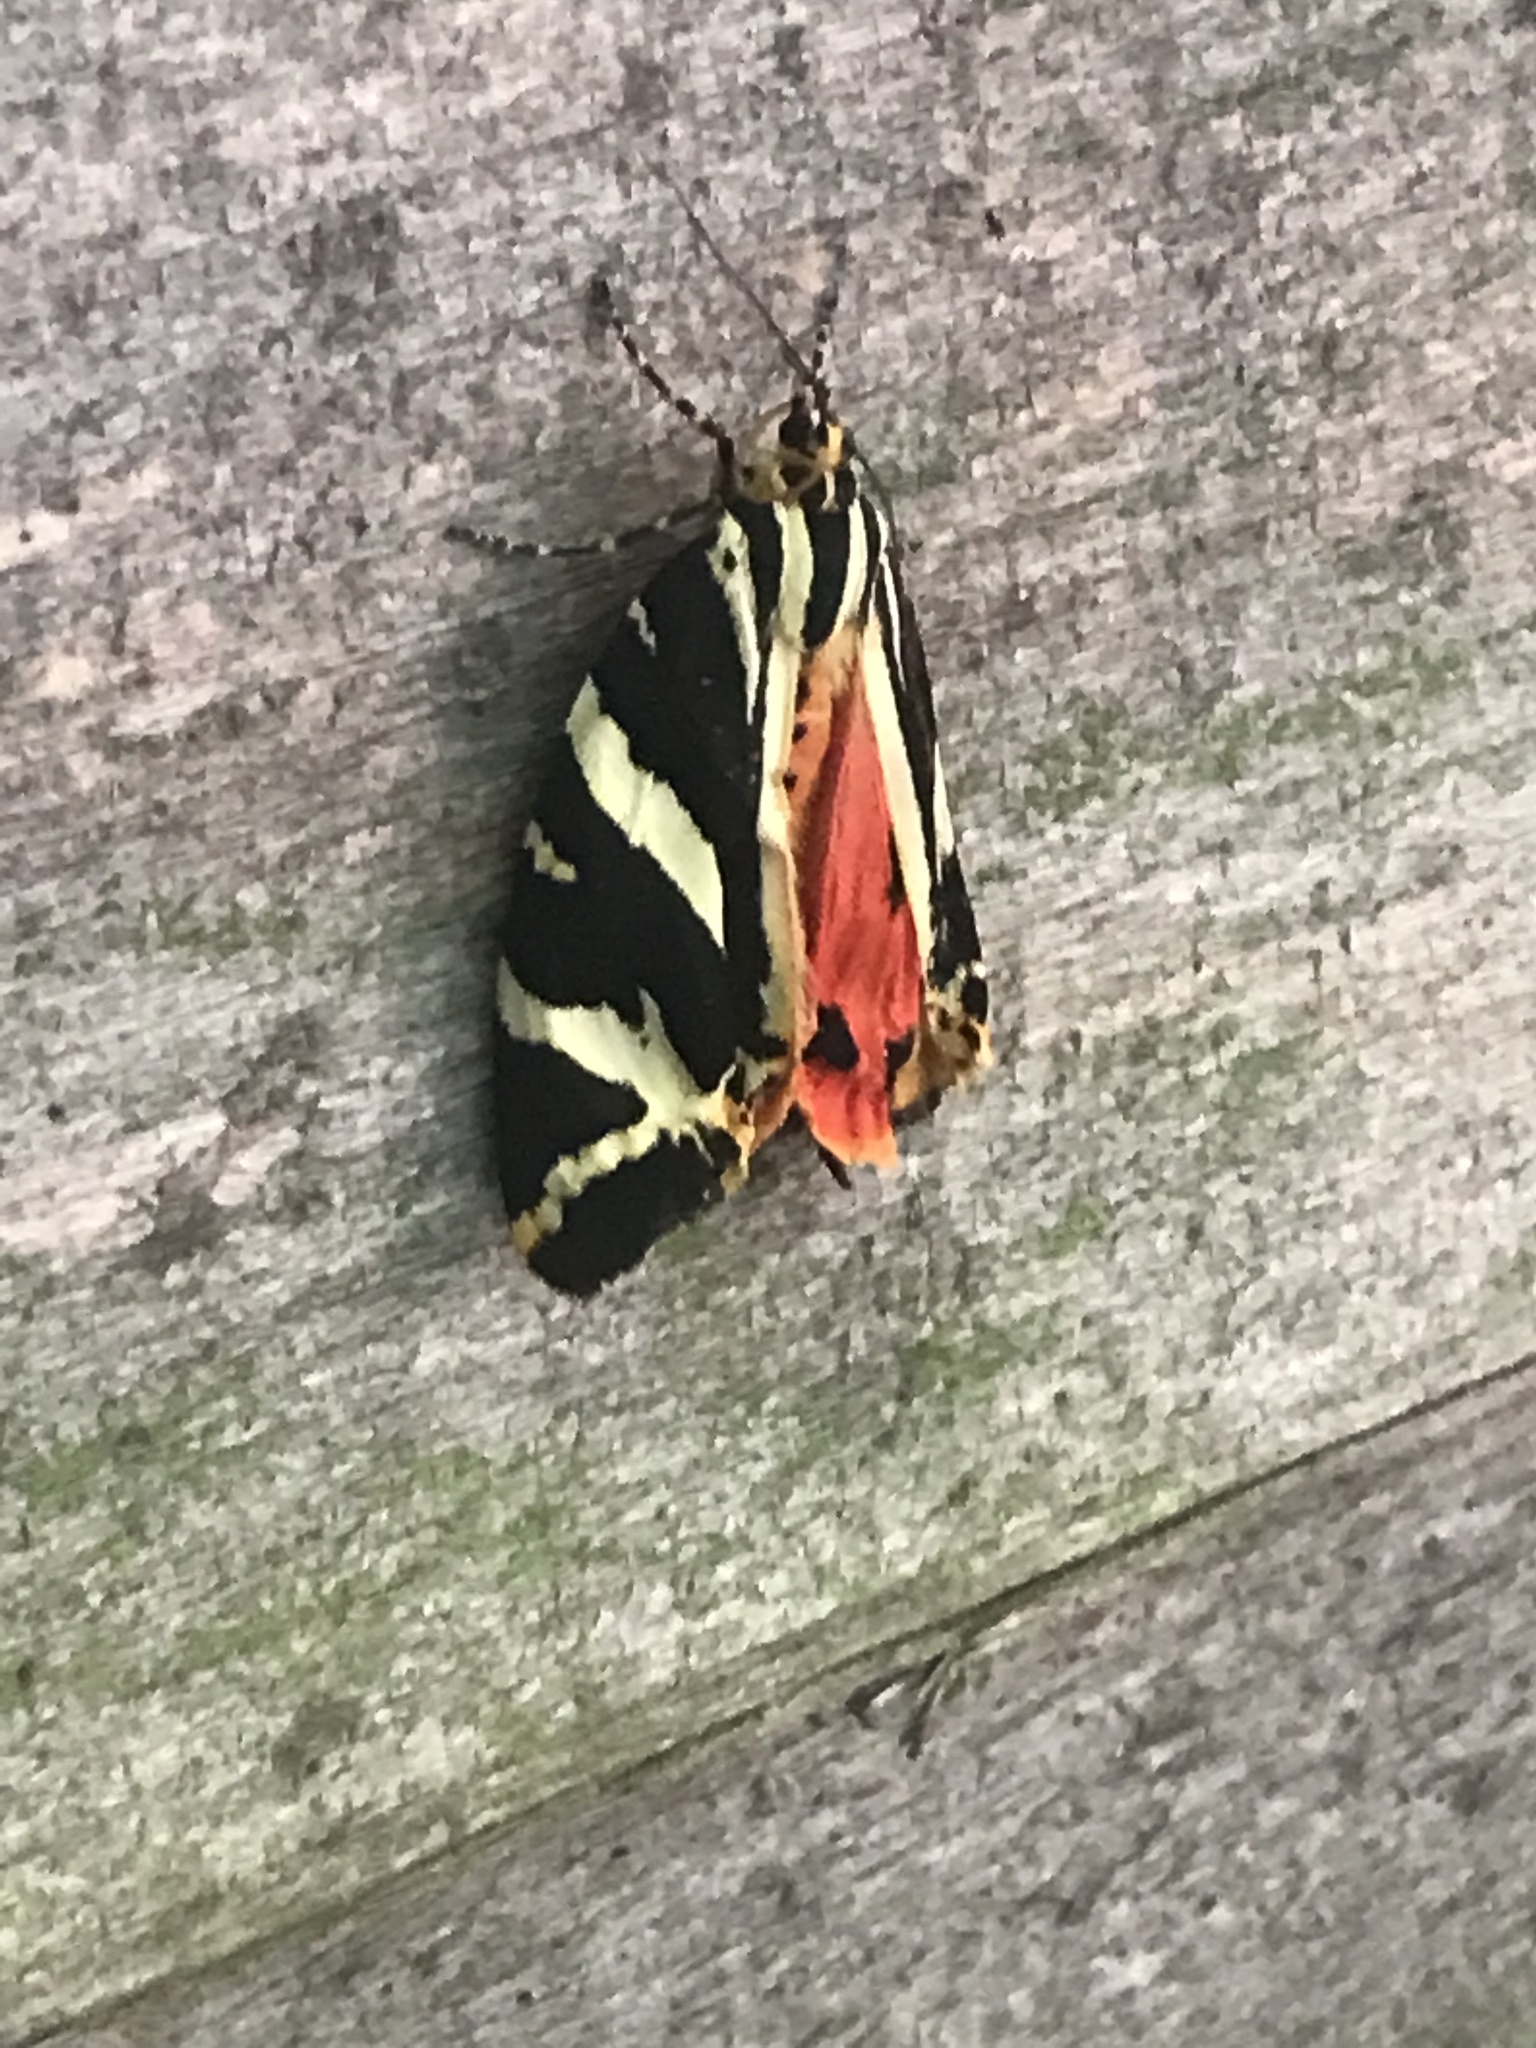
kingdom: Animalia
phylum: Arthropoda
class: Insecta
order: Lepidoptera
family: Erebidae
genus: Euplagia
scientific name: Euplagia quadripunctaria
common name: Jersey tiger
